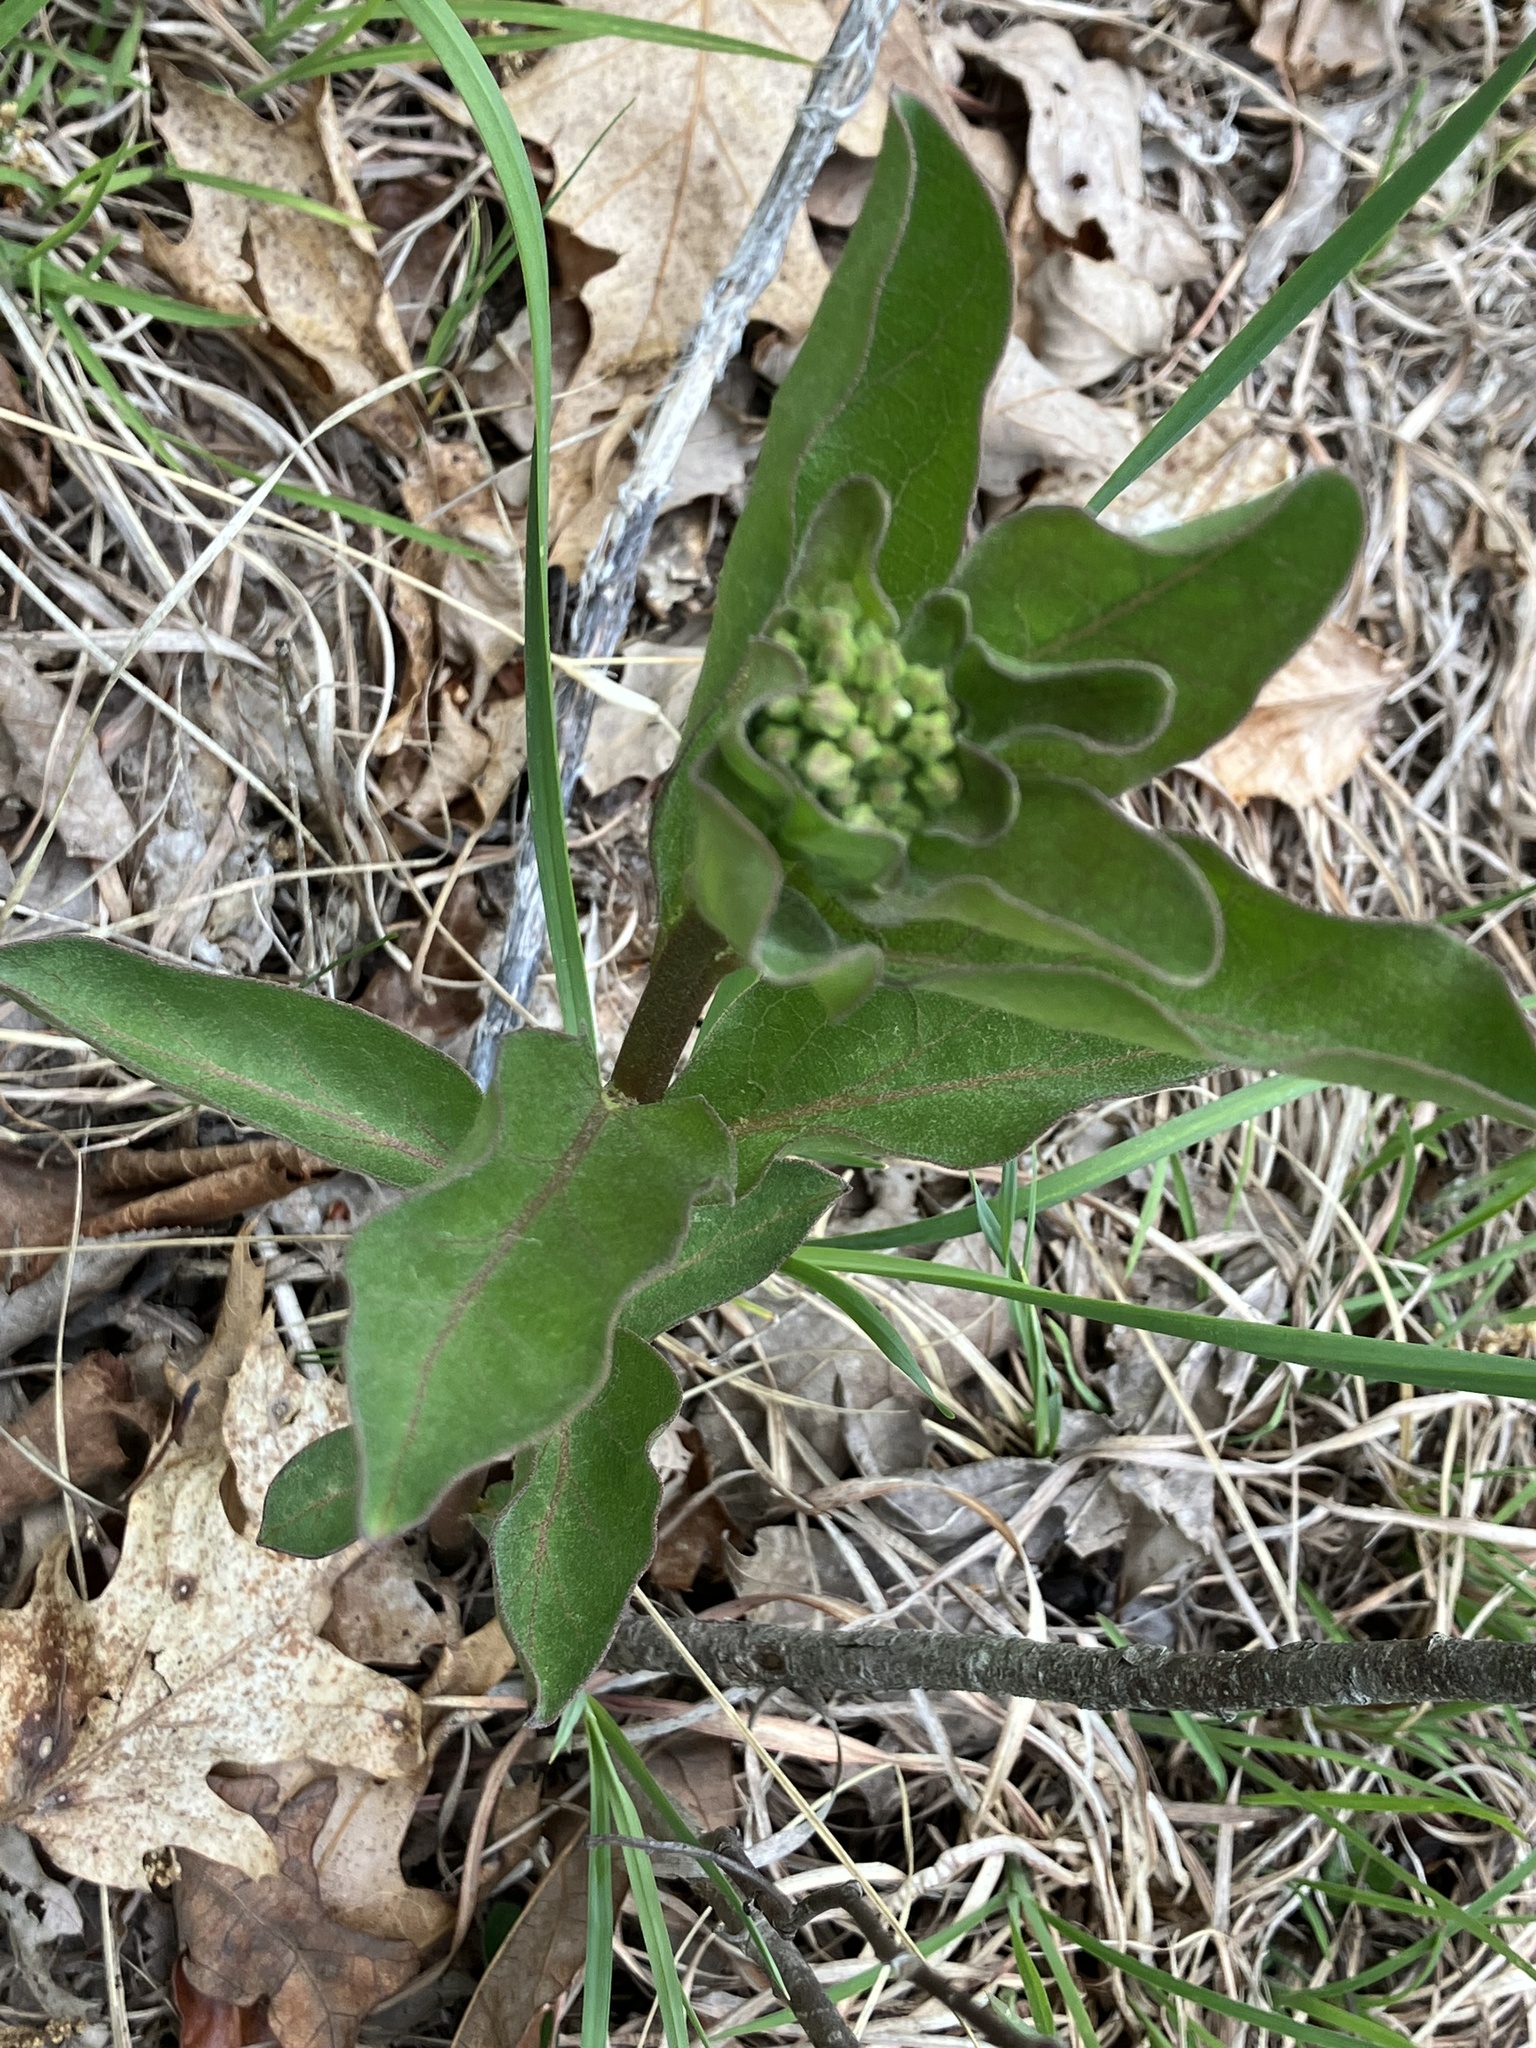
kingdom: Plantae
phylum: Tracheophyta
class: Magnoliopsida
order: Gentianales
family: Apocynaceae
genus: Asclepias
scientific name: Asclepias viridis
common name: Antelope-horns
